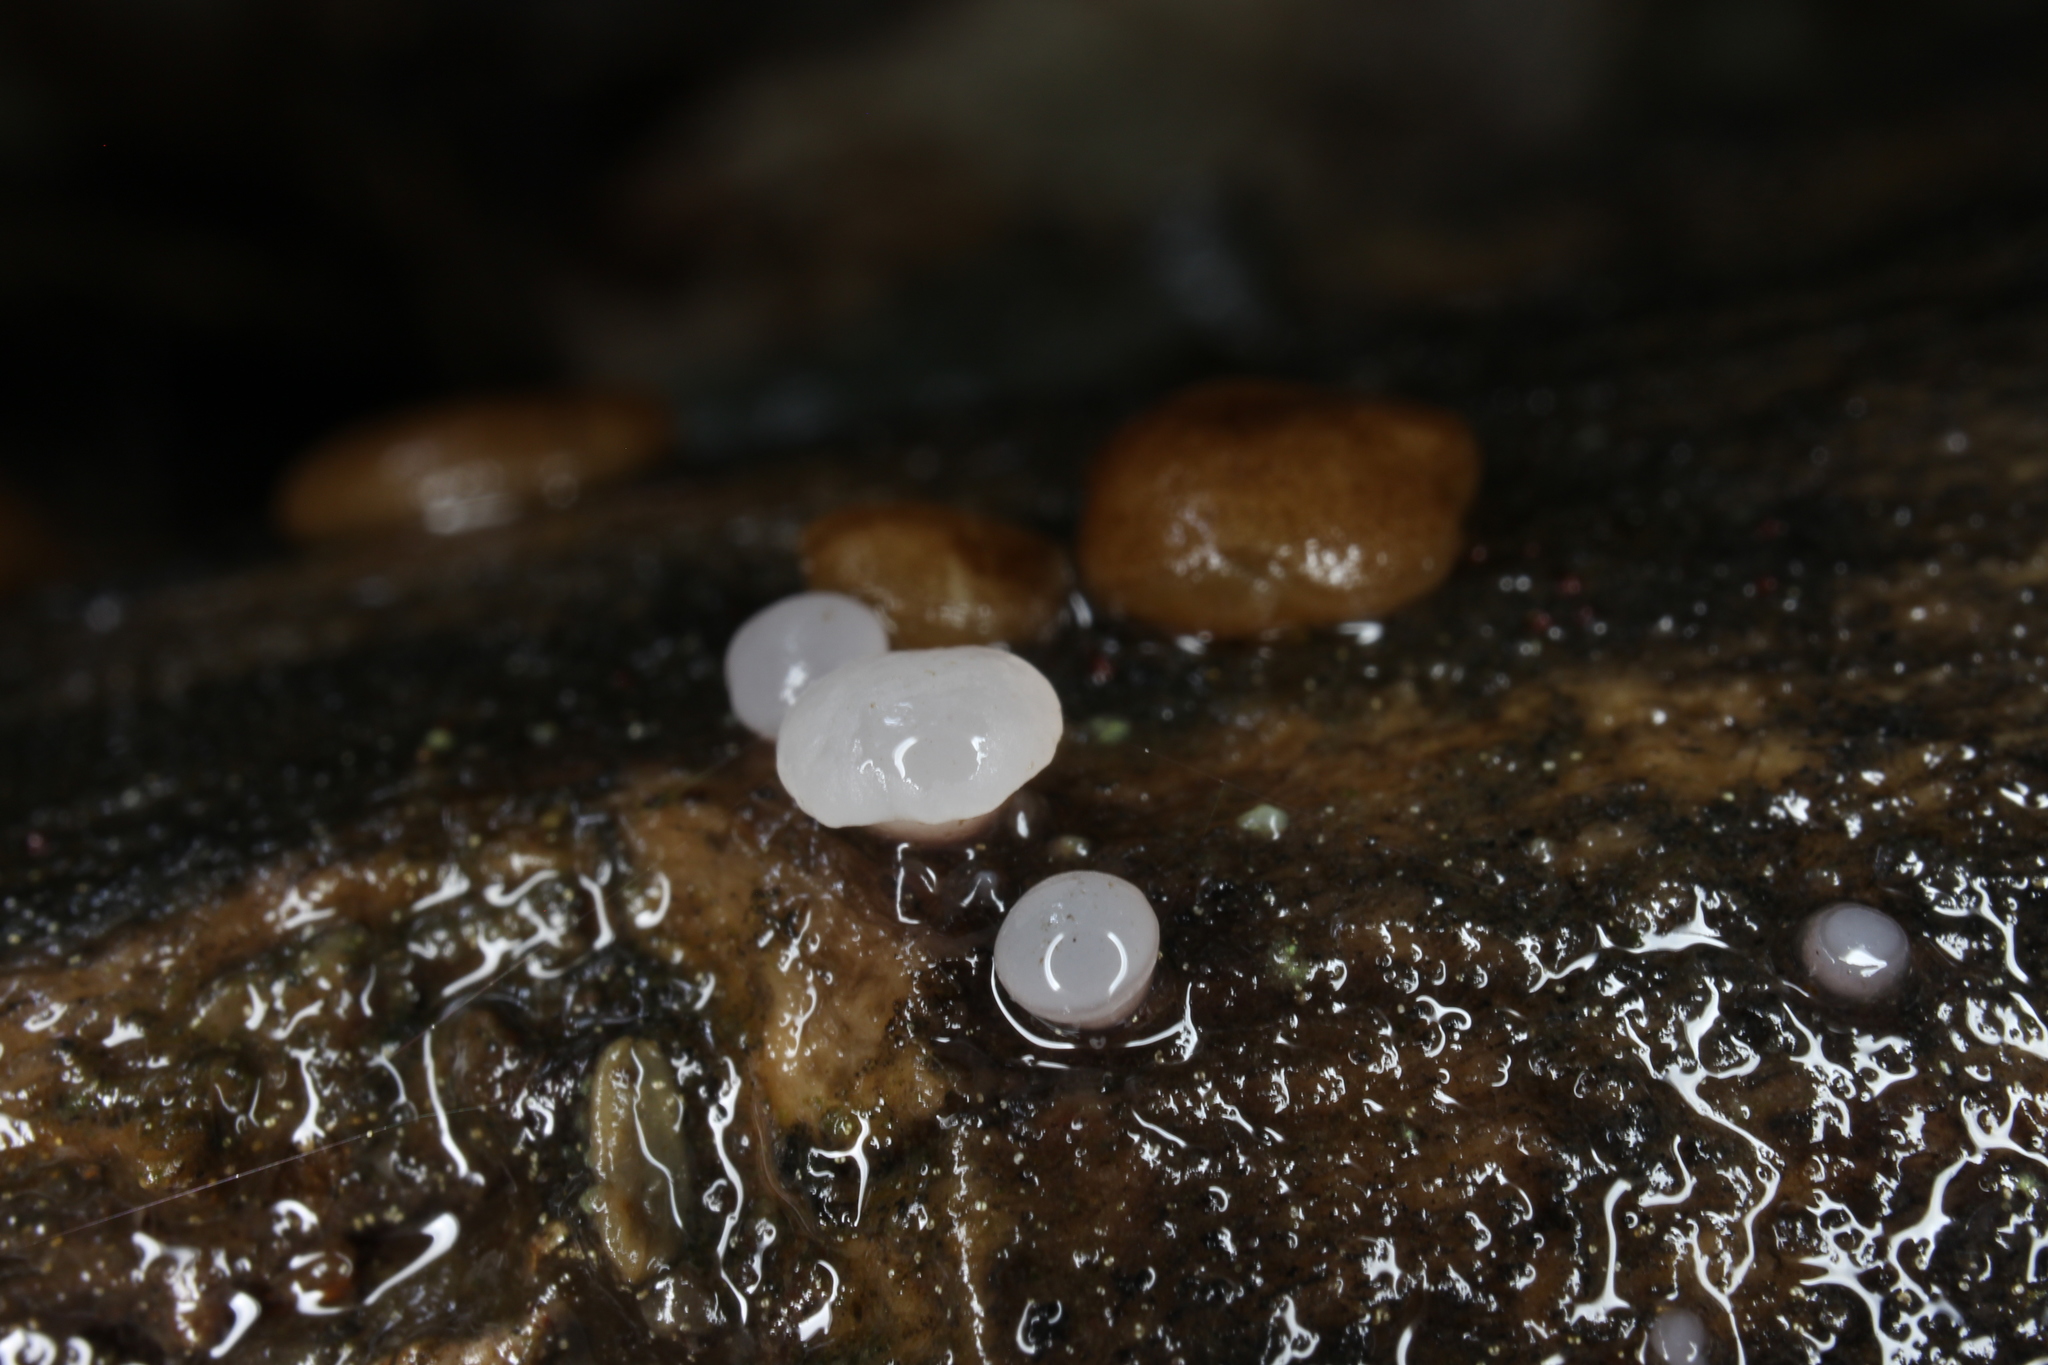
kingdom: Fungi
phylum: Ascomycota
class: Pezizomycetes
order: Pezizales
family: Pezizaceae
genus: Adelphella
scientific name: Adelphella babingtonii
